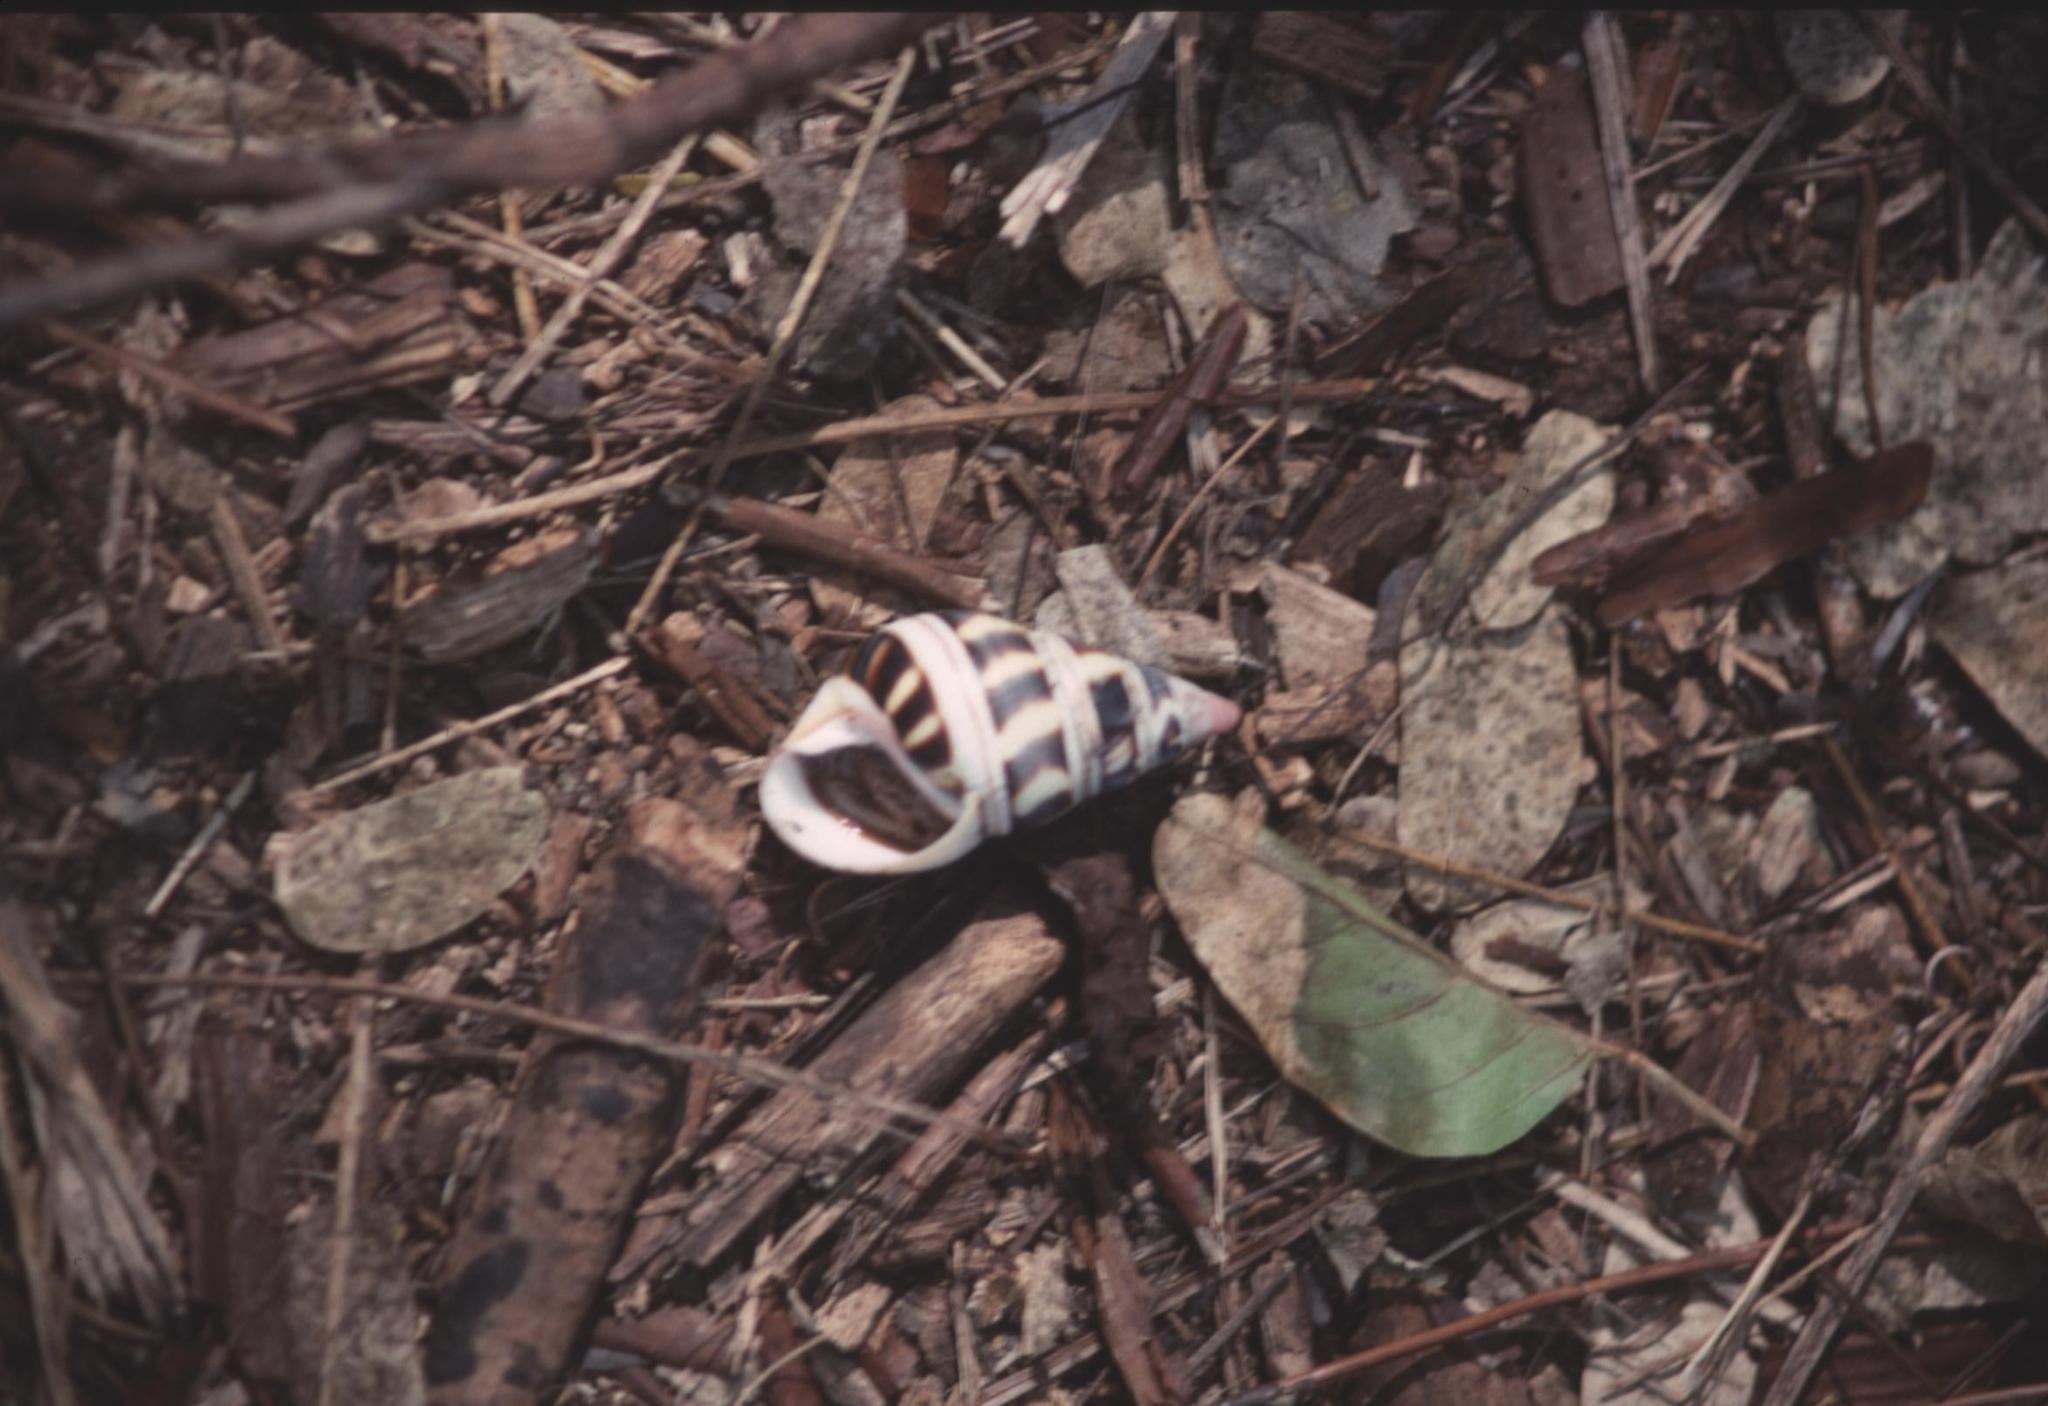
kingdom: Animalia
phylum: Mollusca
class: Gastropoda
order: Stylommatophora
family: Orthalicidae
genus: Liguus
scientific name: Liguus fasciatus
